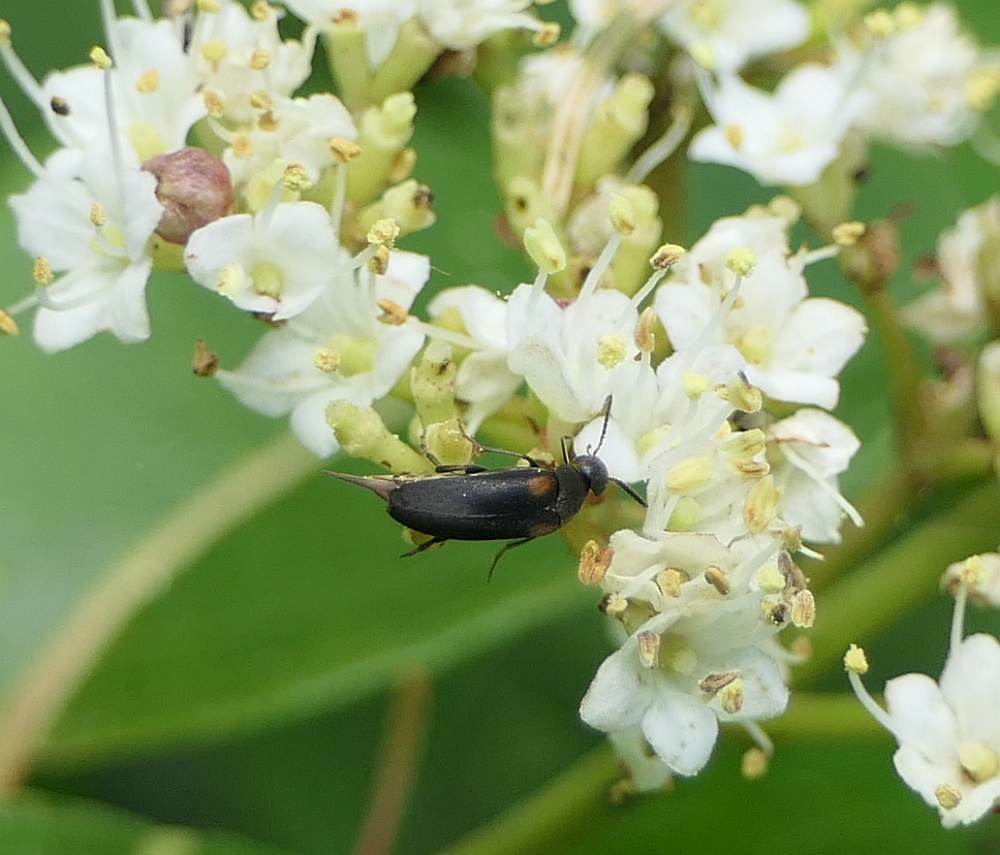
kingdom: Animalia
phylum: Arthropoda
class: Insecta
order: Coleoptera
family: Mordellidae
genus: Mordellochroa
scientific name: Mordellochroa scapularis
